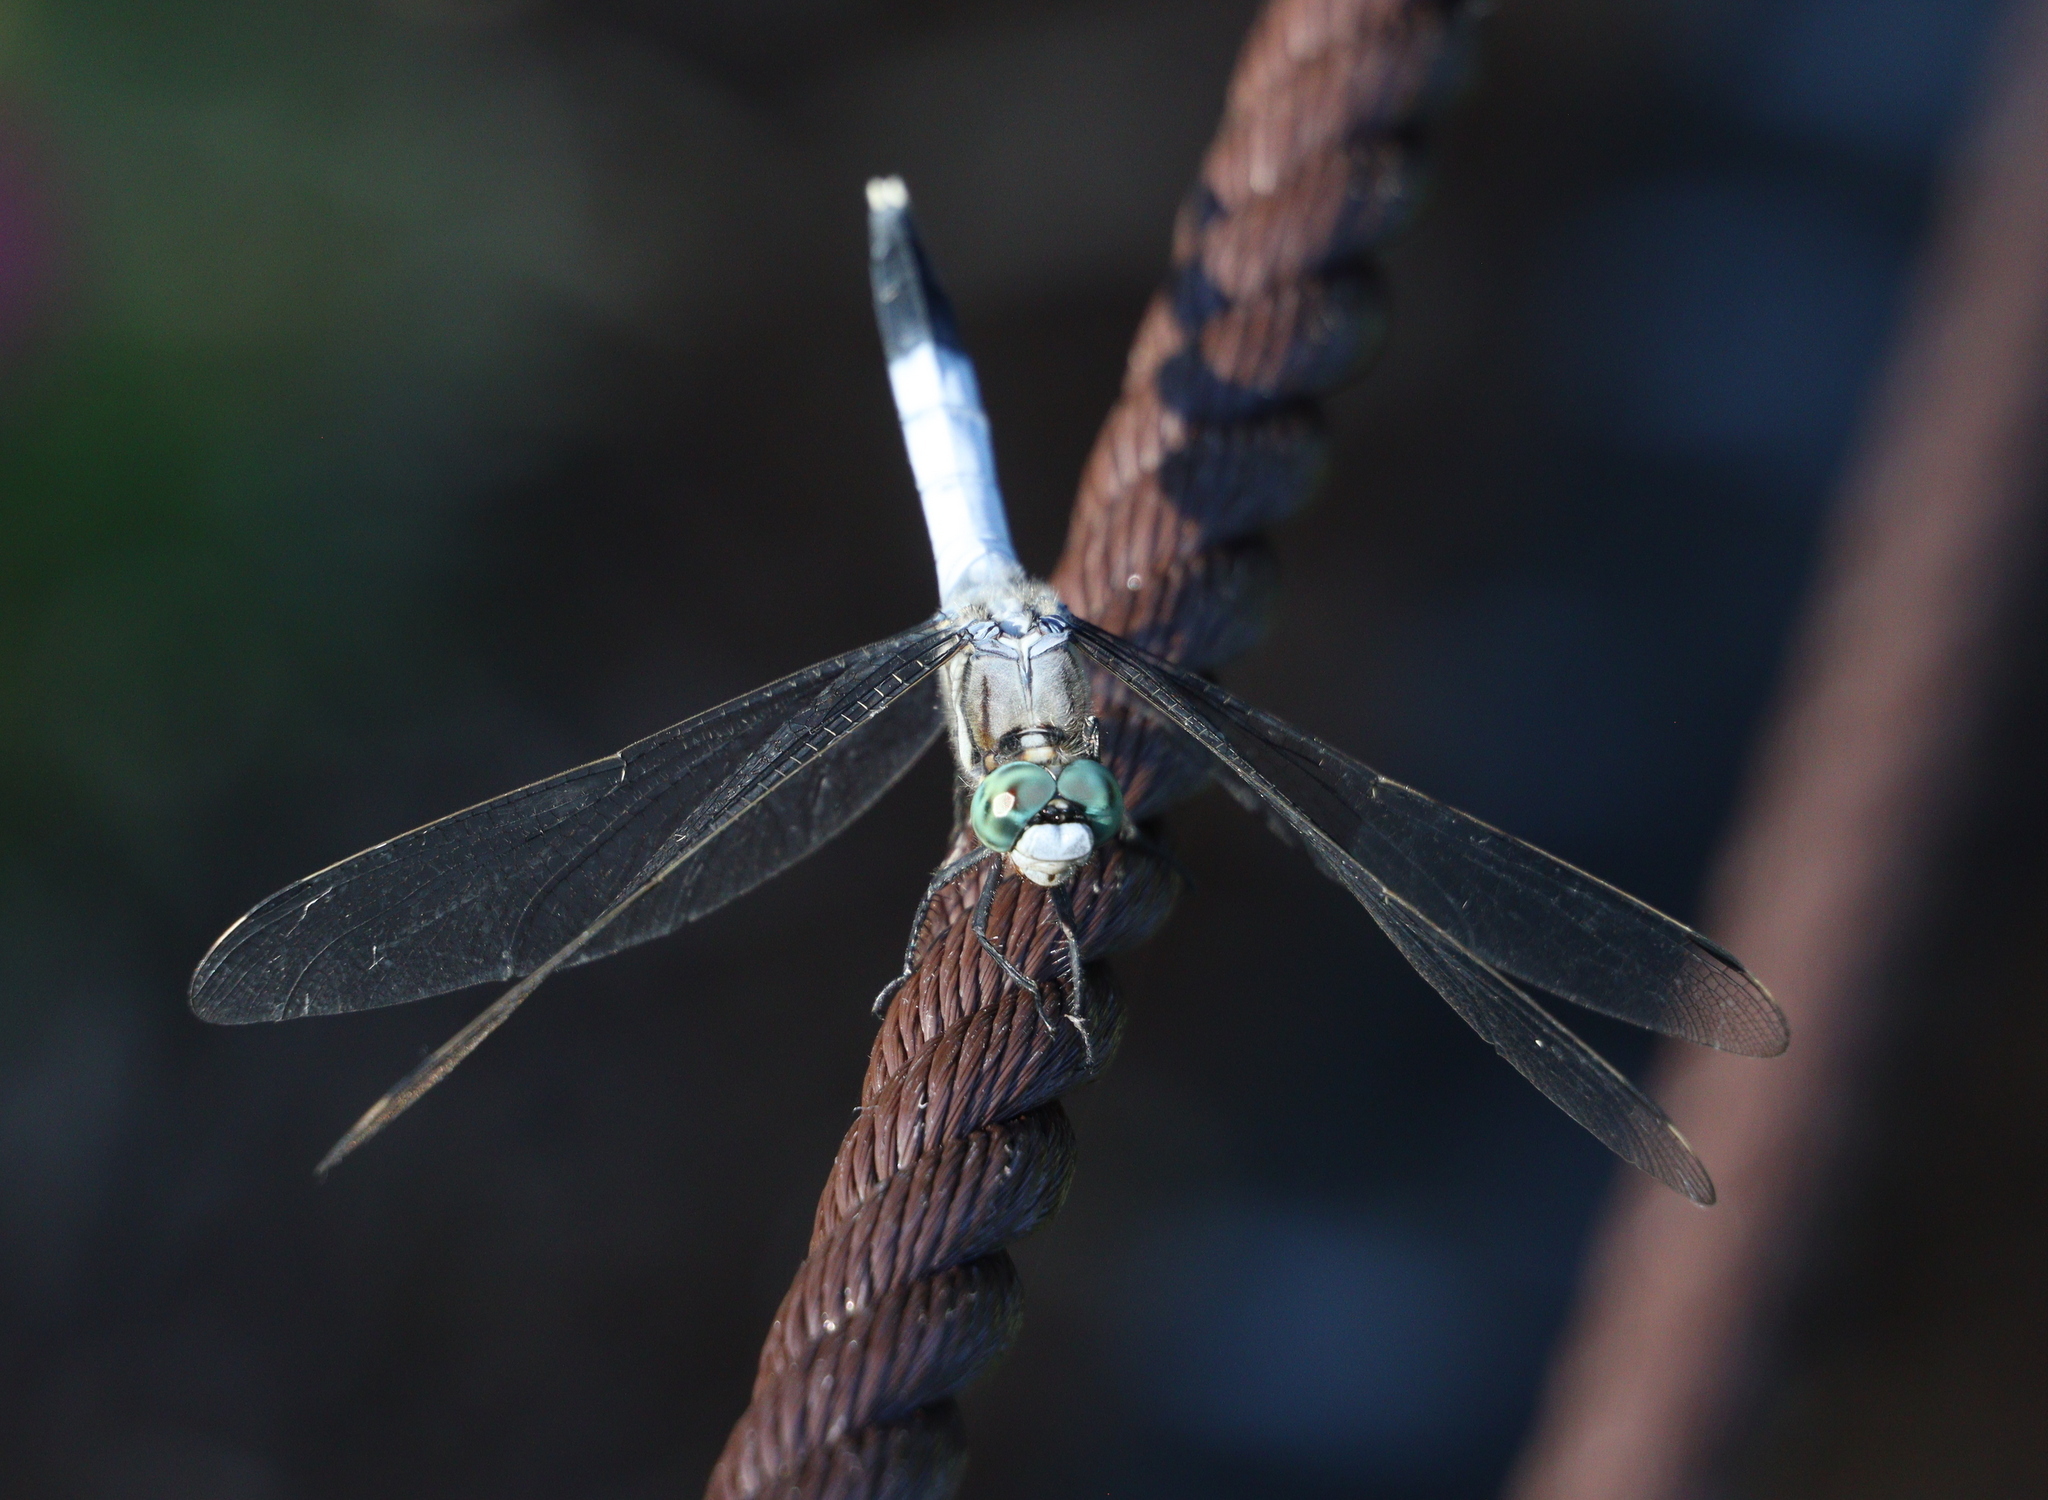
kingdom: Animalia
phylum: Arthropoda
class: Insecta
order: Odonata
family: Libellulidae
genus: Orthetrum
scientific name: Orthetrum albistylum
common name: White-tailed skimmer
